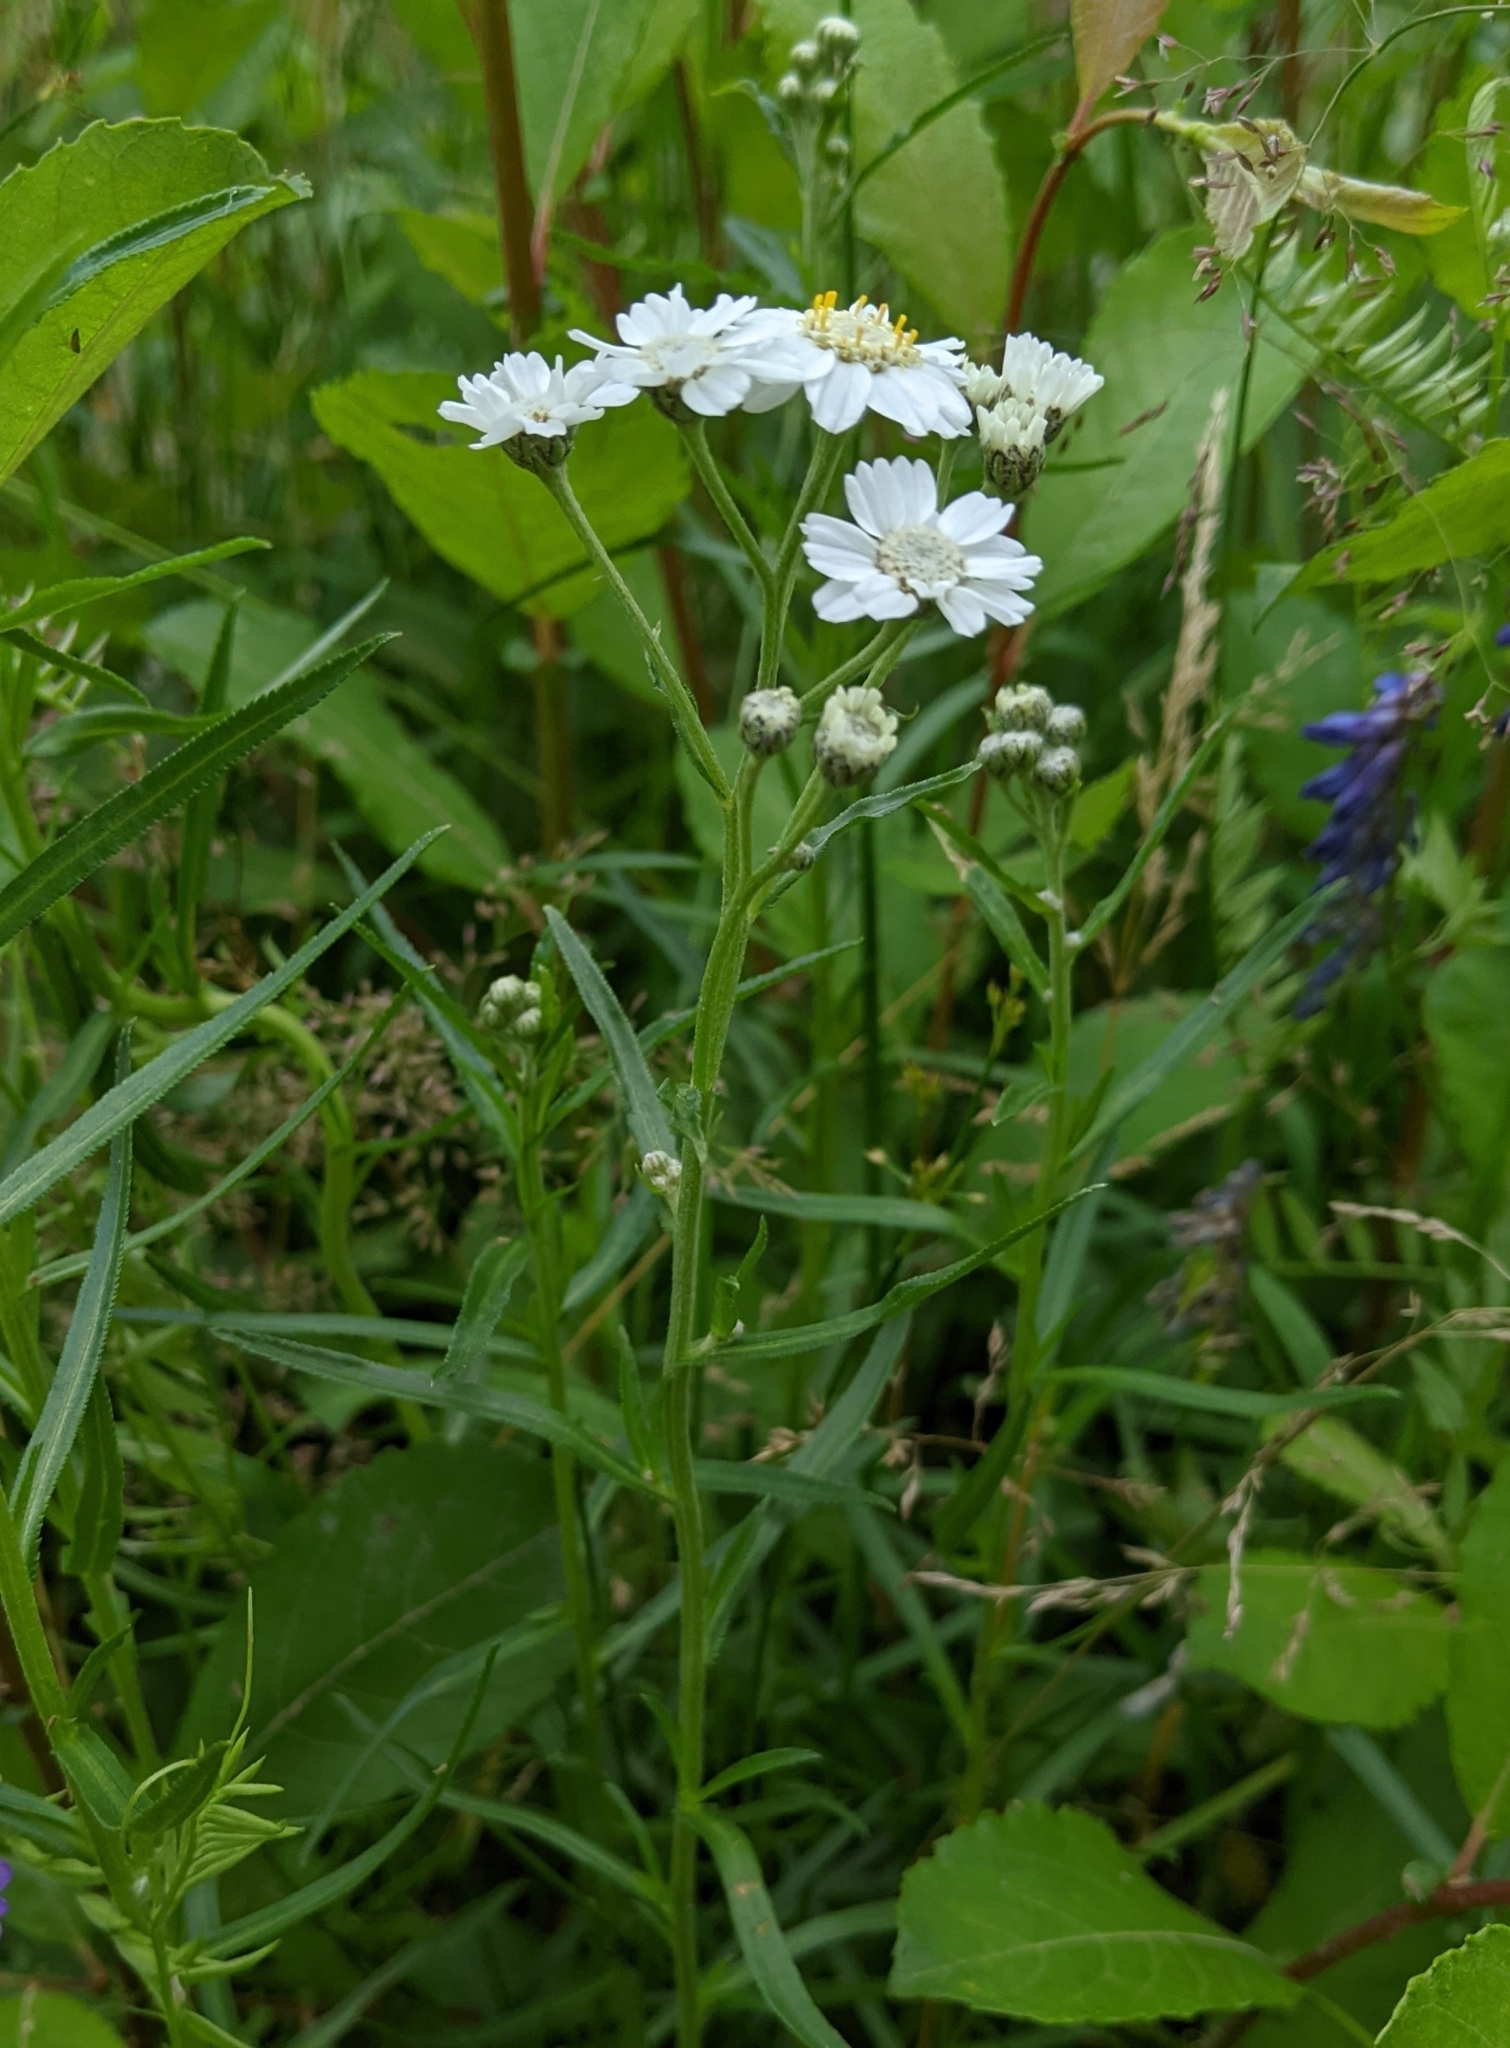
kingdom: Plantae
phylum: Tracheophyta
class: Magnoliopsida
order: Asterales
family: Asteraceae
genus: Achillea
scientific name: Achillea ptarmica
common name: Sneezeweed
